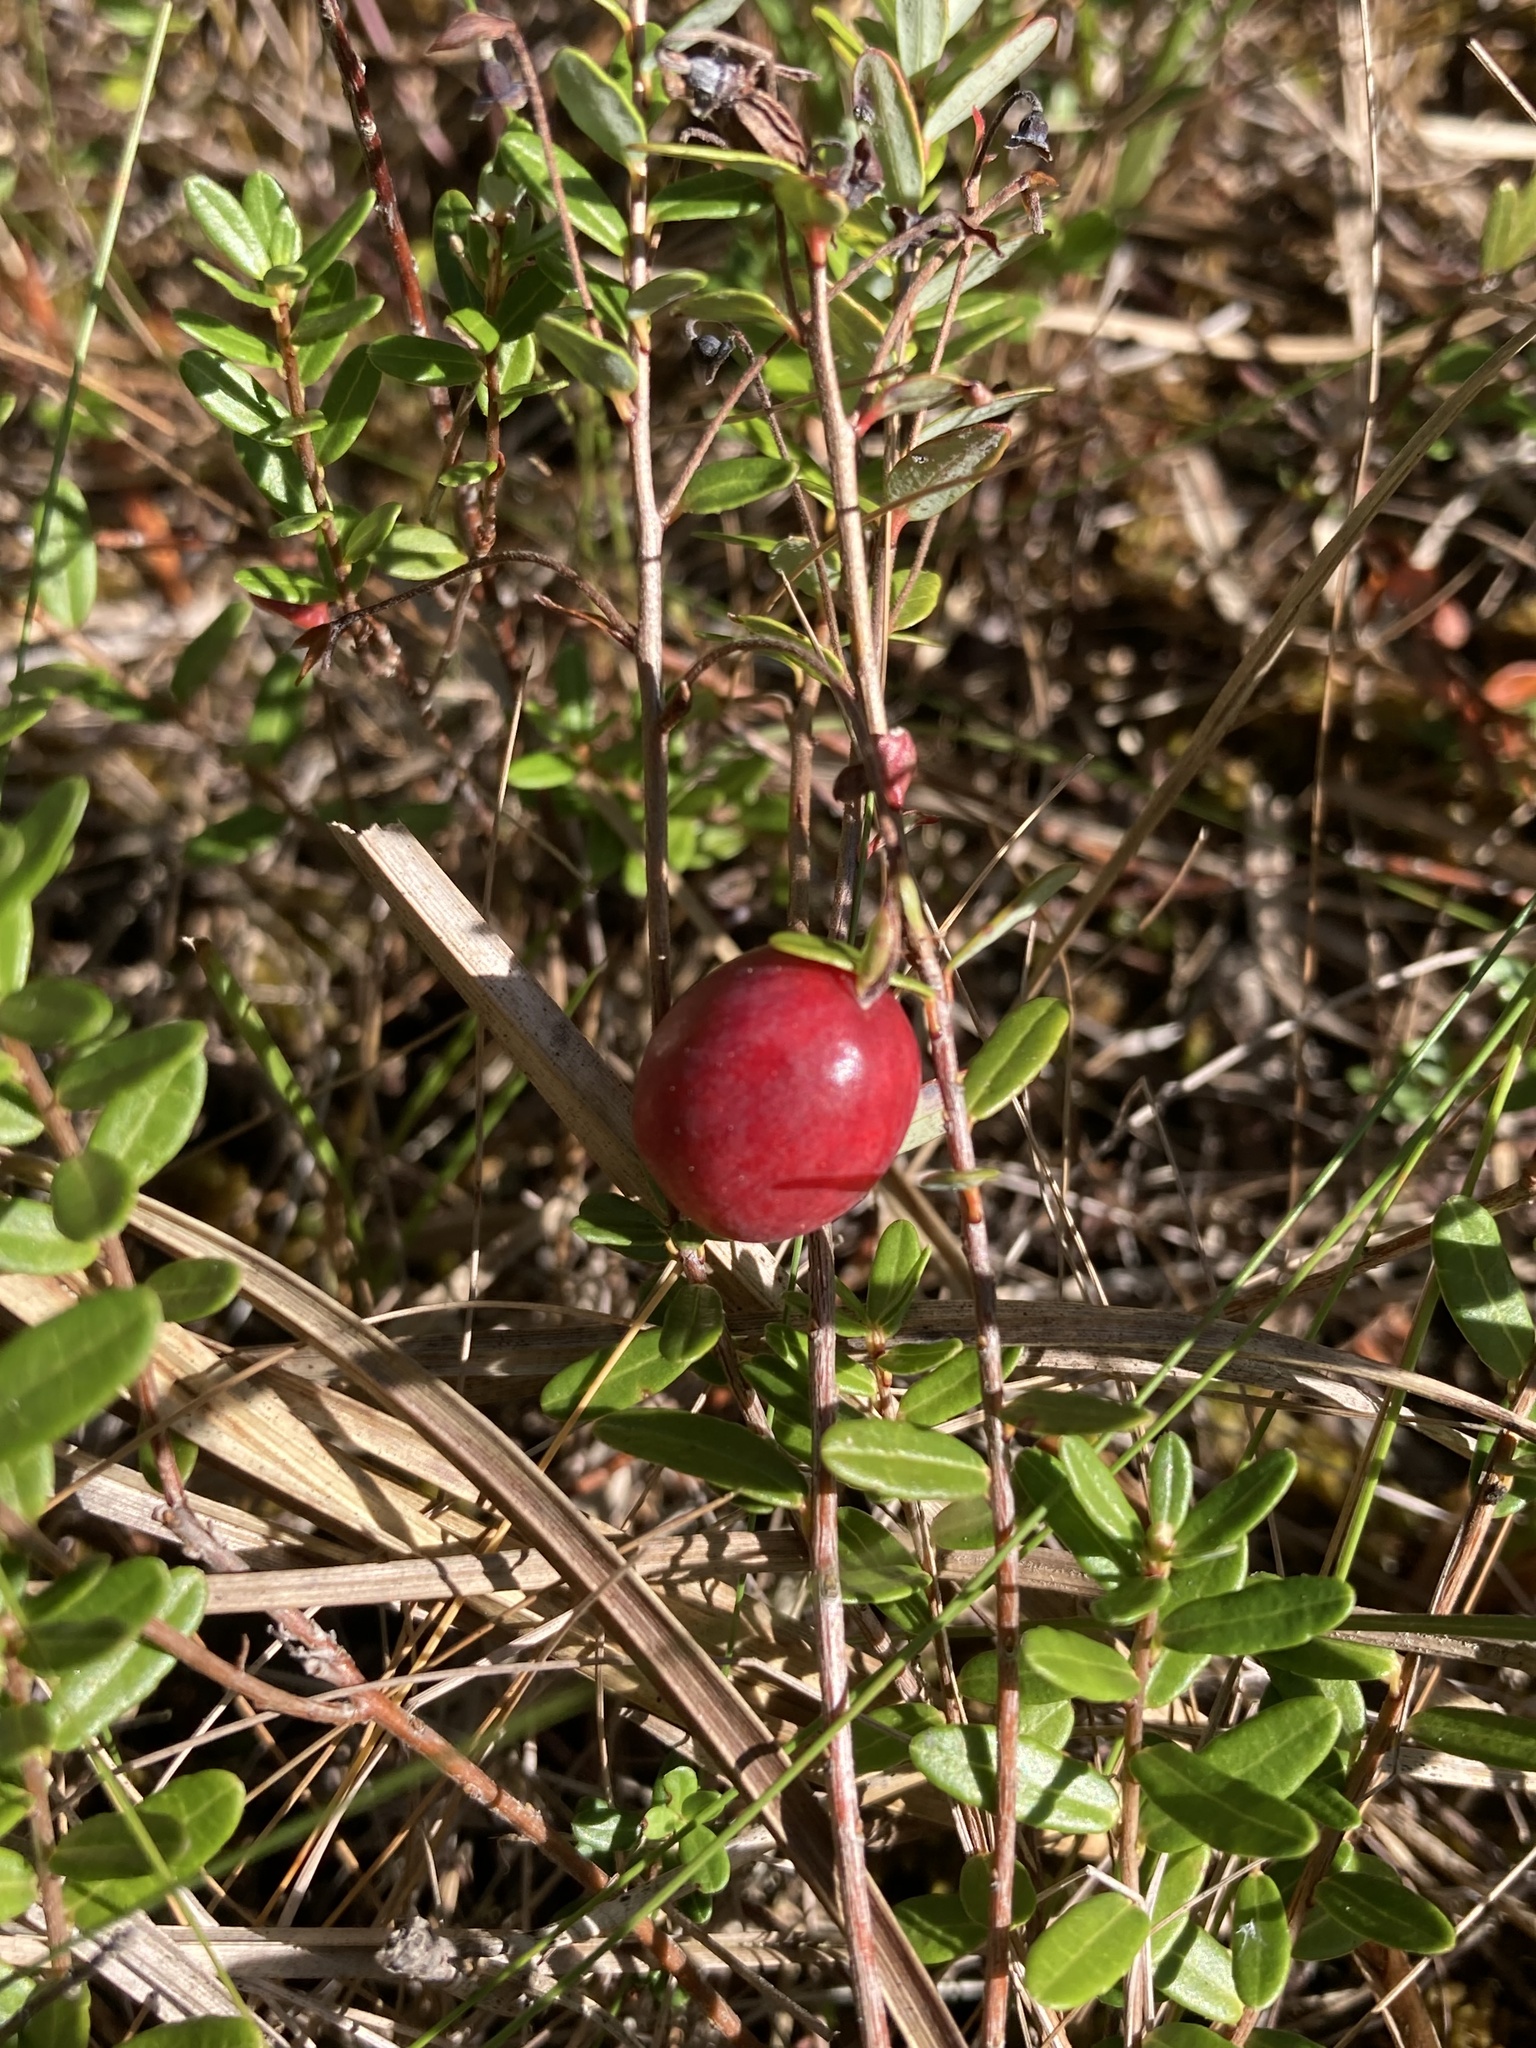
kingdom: Plantae
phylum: Tracheophyta
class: Magnoliopsida
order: Ericales
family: Ericaceae
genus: Vaccinium
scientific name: Vaccinium macrocarpon
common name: American cranberry
